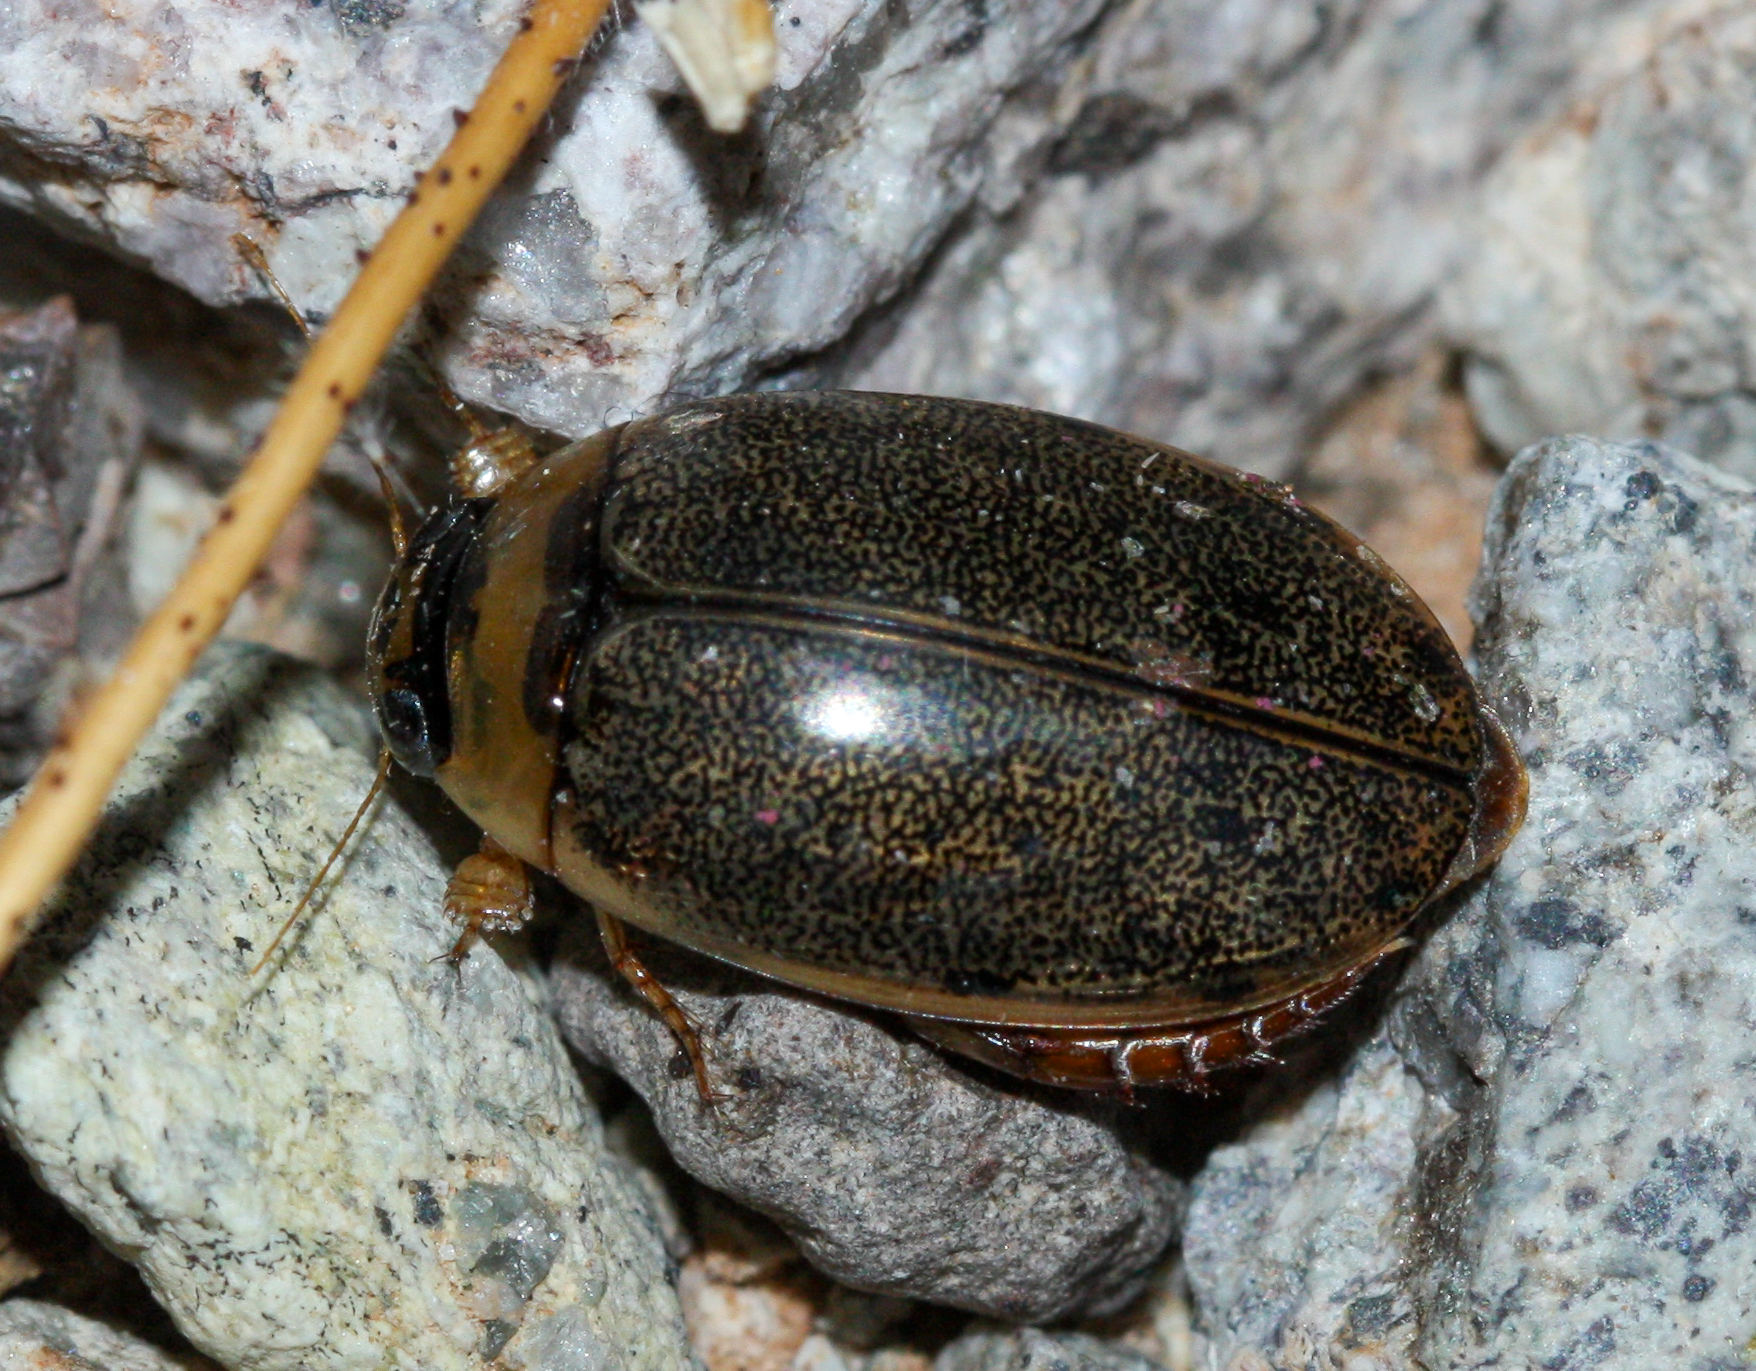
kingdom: Animalia
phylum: Arthropoda
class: Insecta
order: Coleoptera
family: Dytiscidae
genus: Thermonectus
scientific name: Thermonectus sibleyi
